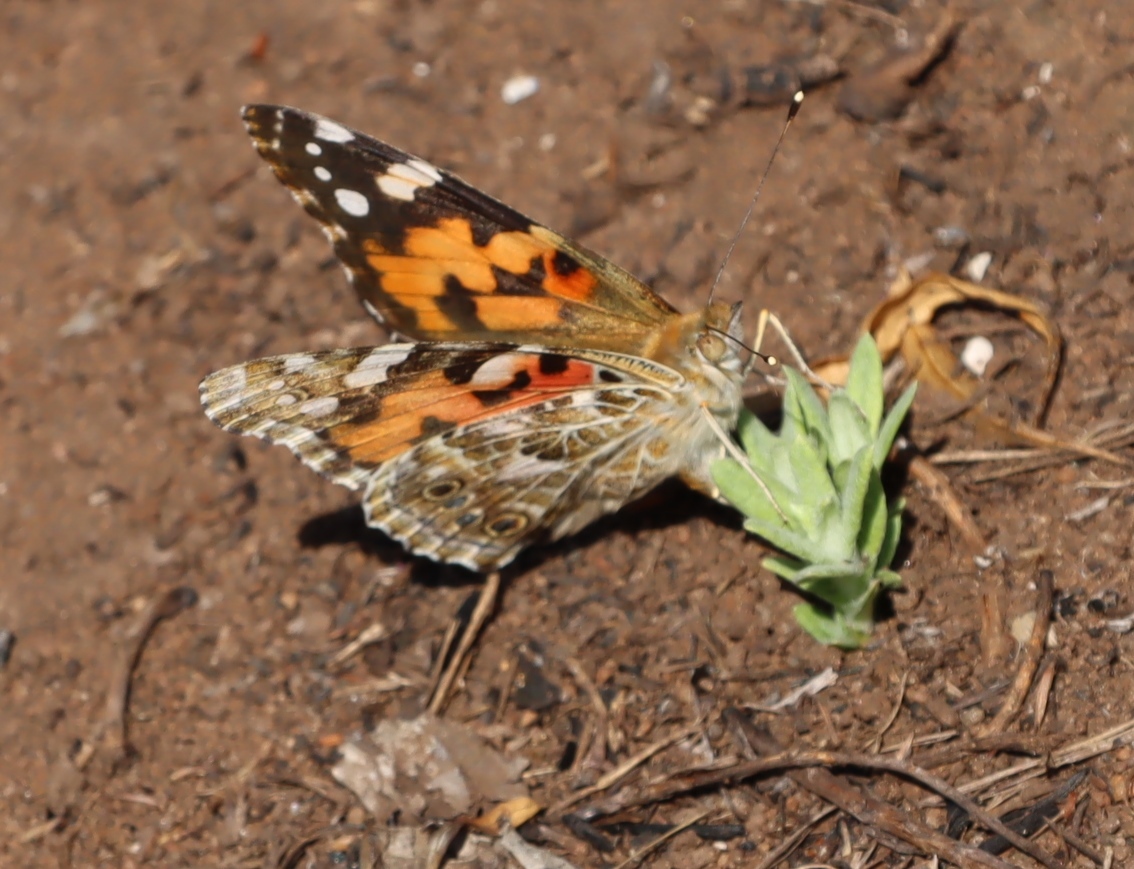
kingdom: Animalia
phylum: Arthropoda
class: Insecta
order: Lepidoptera
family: Nymphalidae
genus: Vanessa
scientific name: Vanessa cardui
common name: Painted lady
